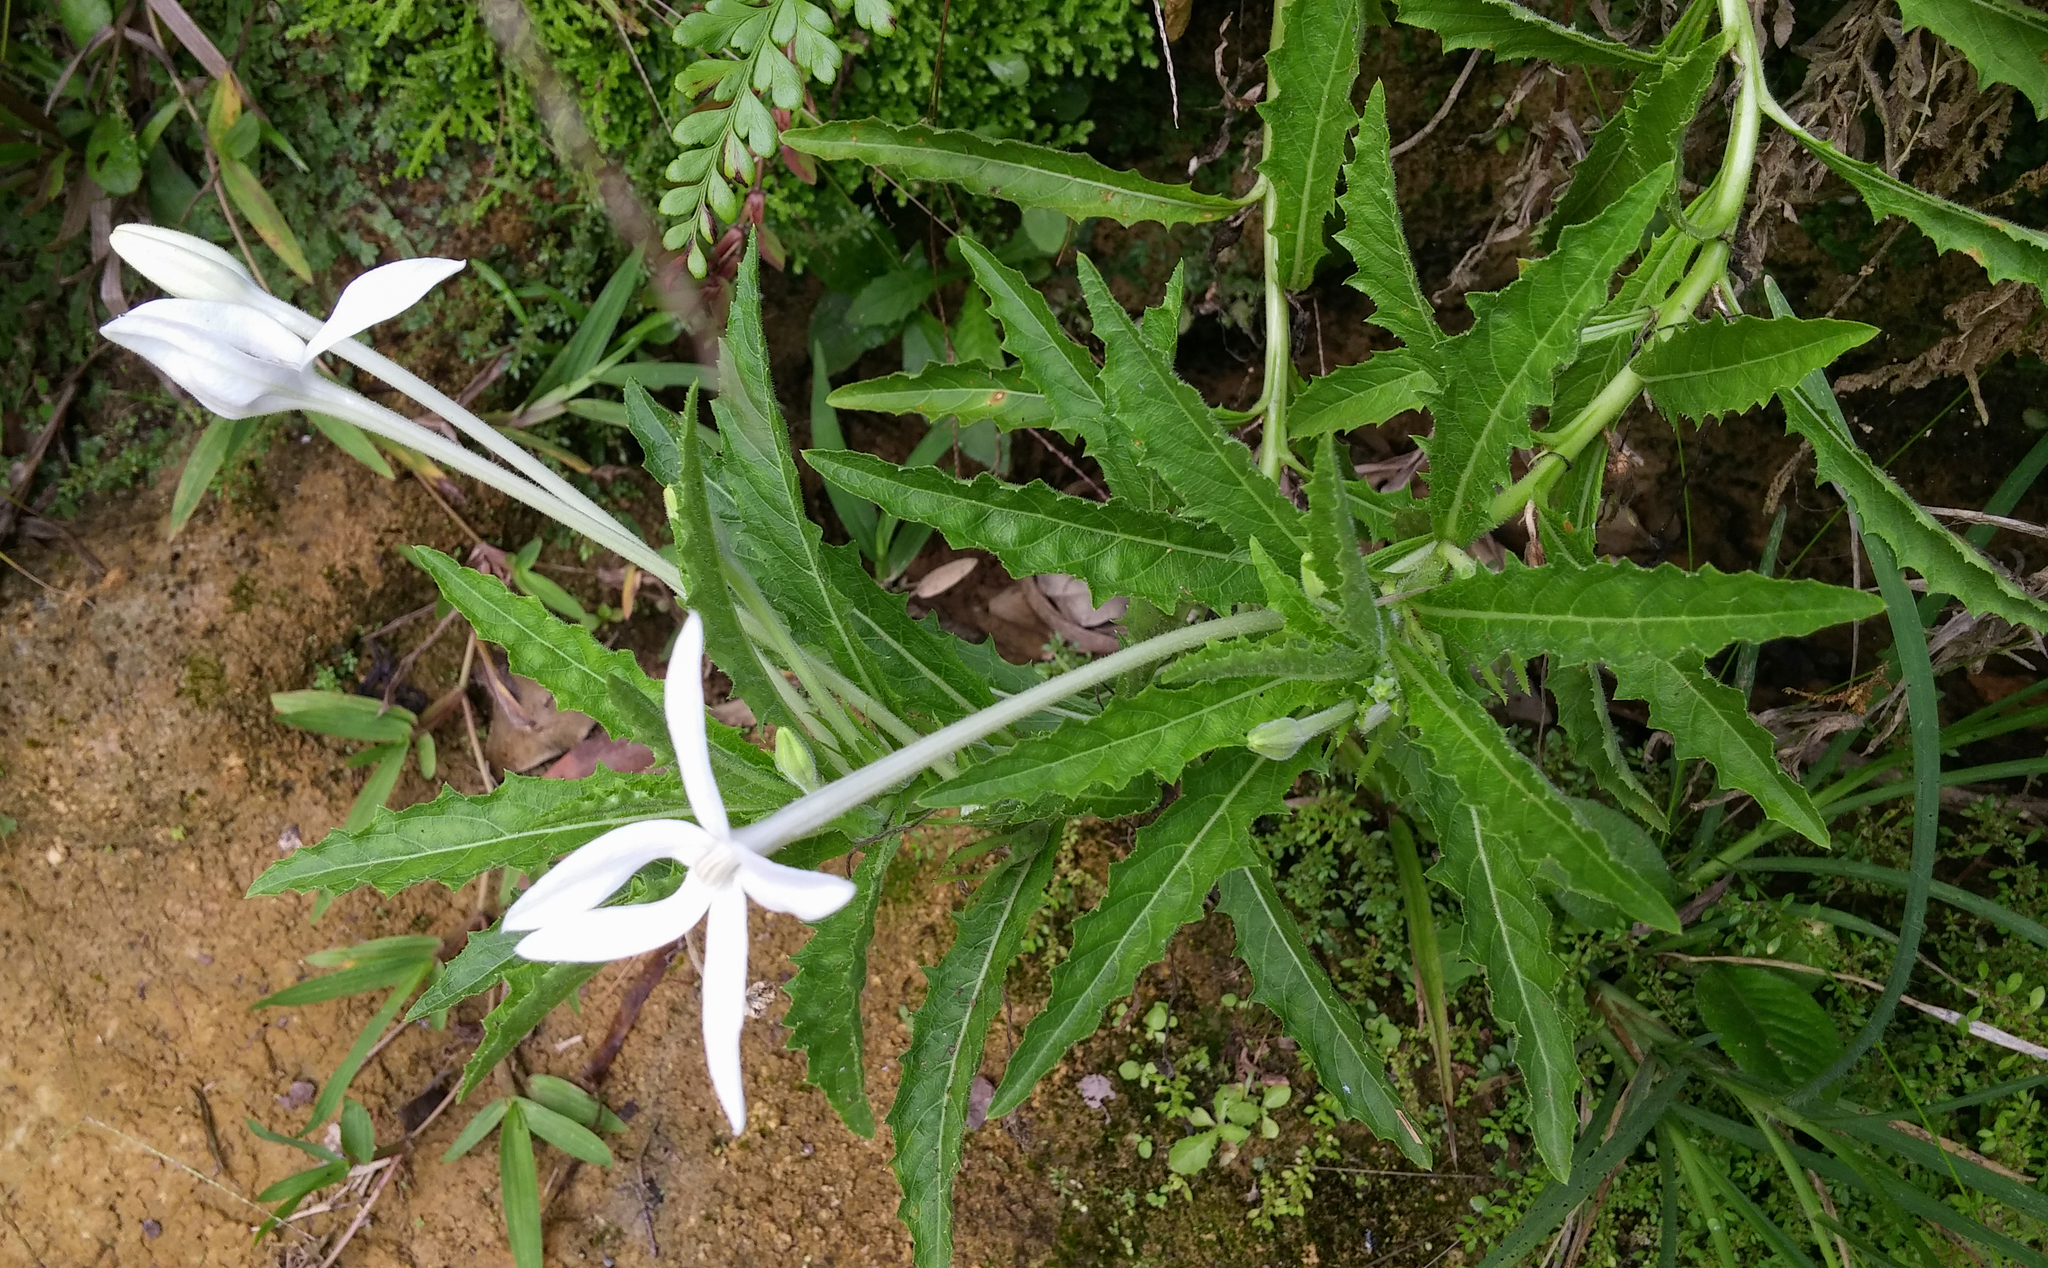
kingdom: Plantae
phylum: Tracheophyta
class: Magnoliopsida
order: Asterales
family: Campanulaceae
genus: Hippobroma
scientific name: Hippobroma longiflora
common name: Madamfate
